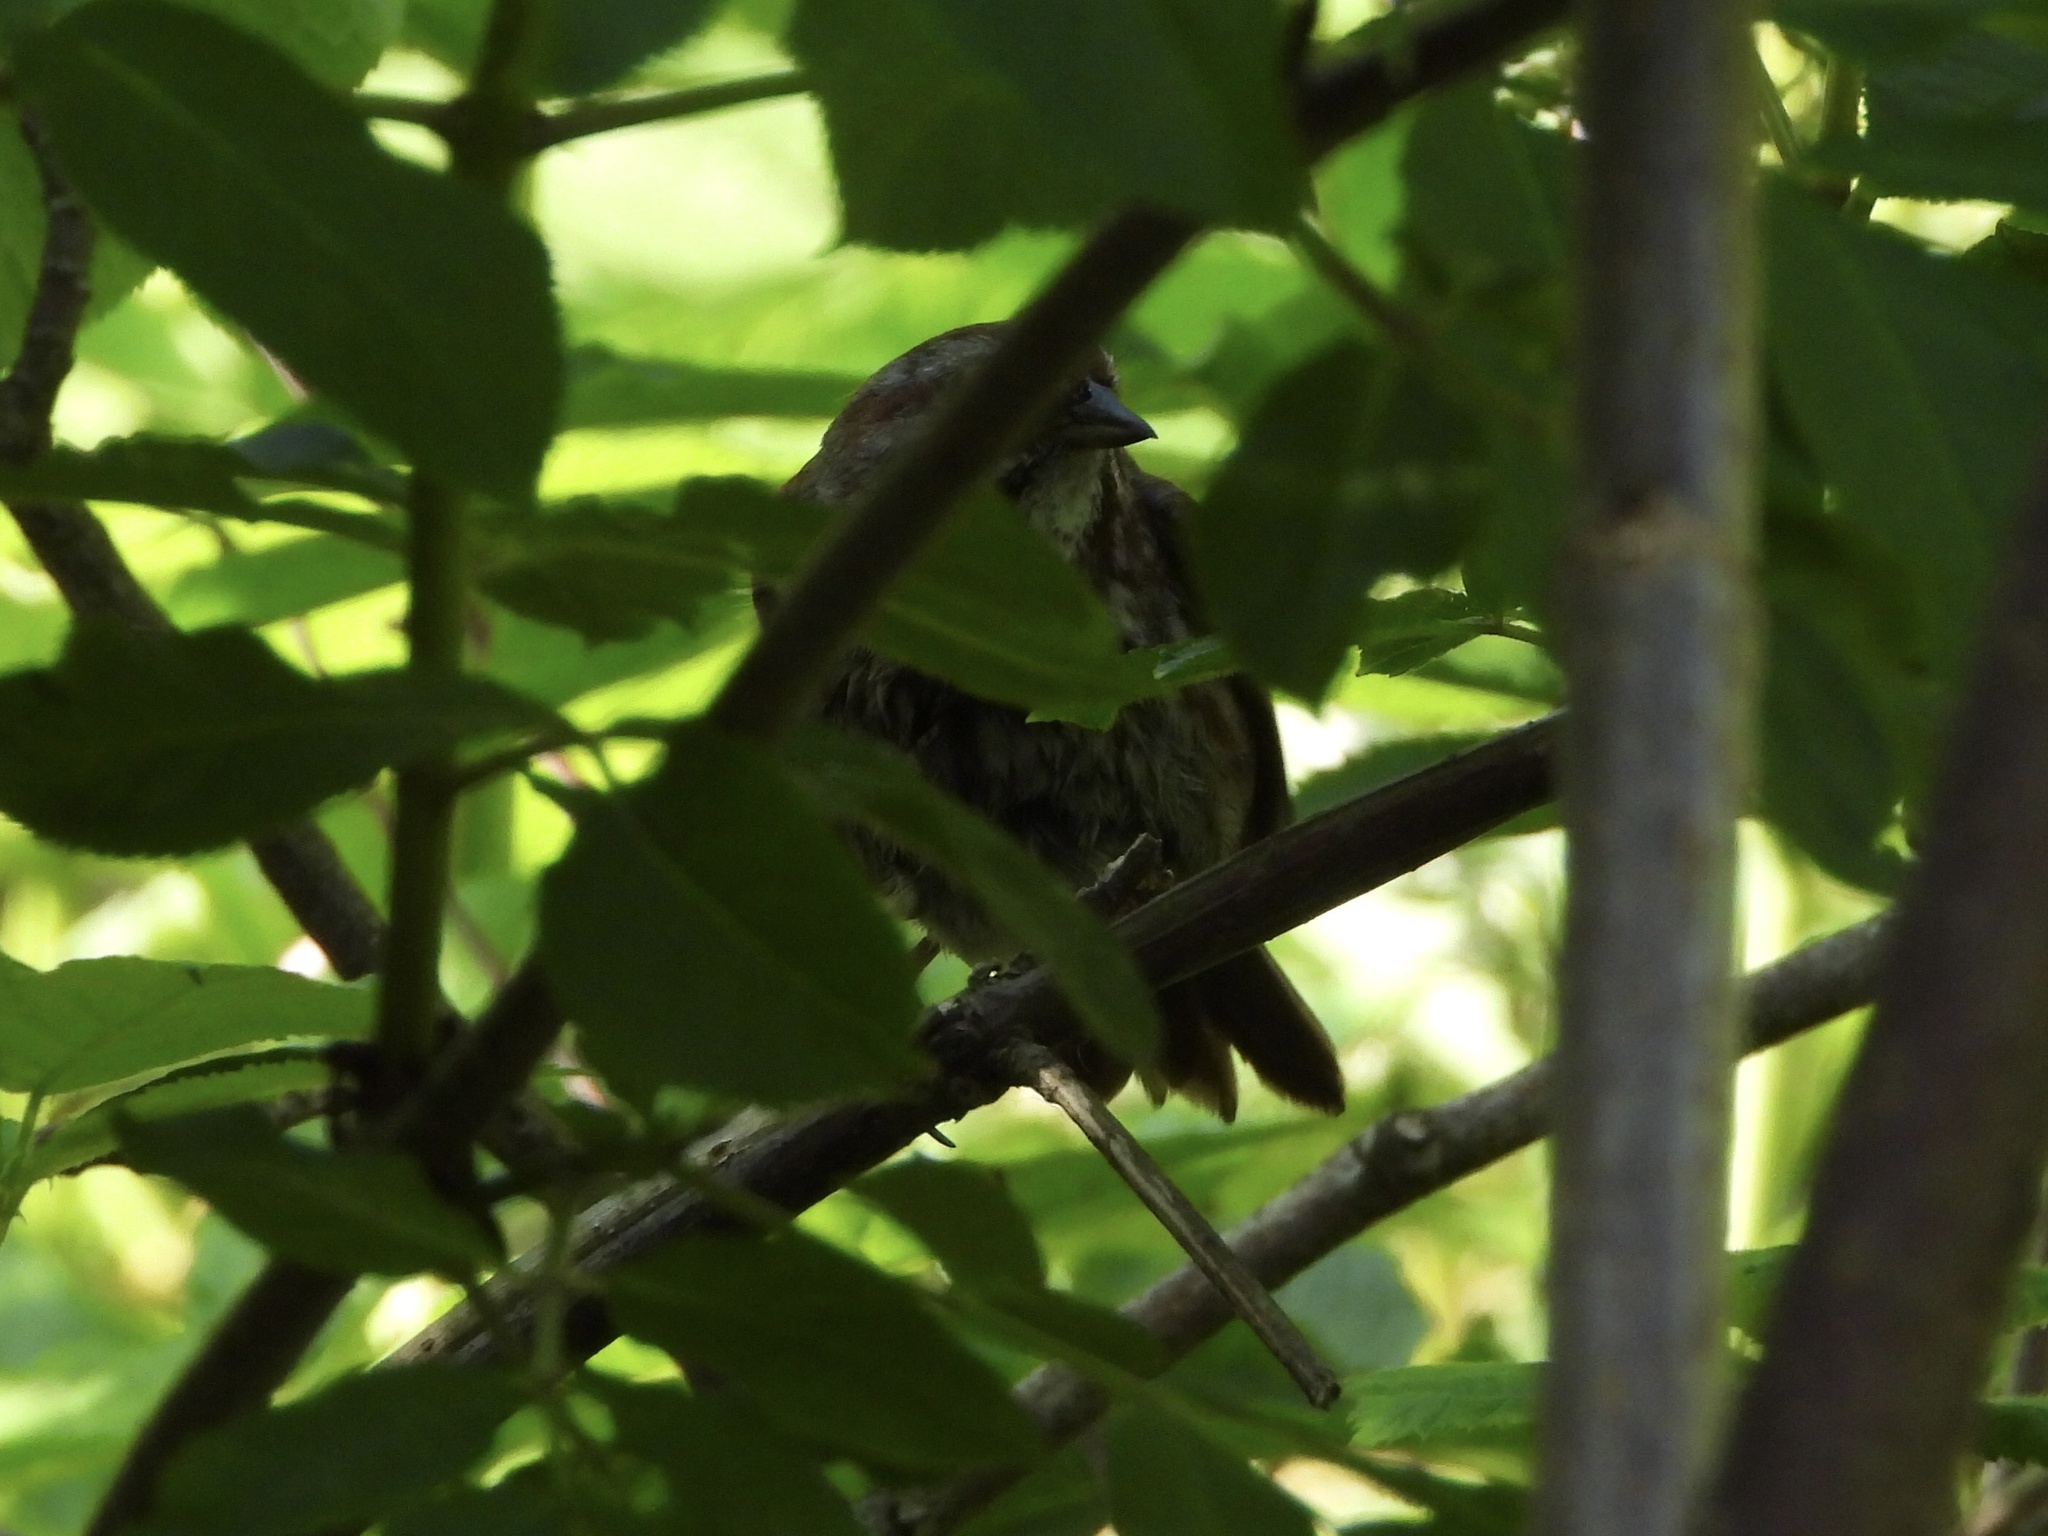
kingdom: Animalia
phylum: Chordata
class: Aves
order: Passeriformes
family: Passerellidae
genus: Melospiza
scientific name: Melospiza melodia
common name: Song sparrow
